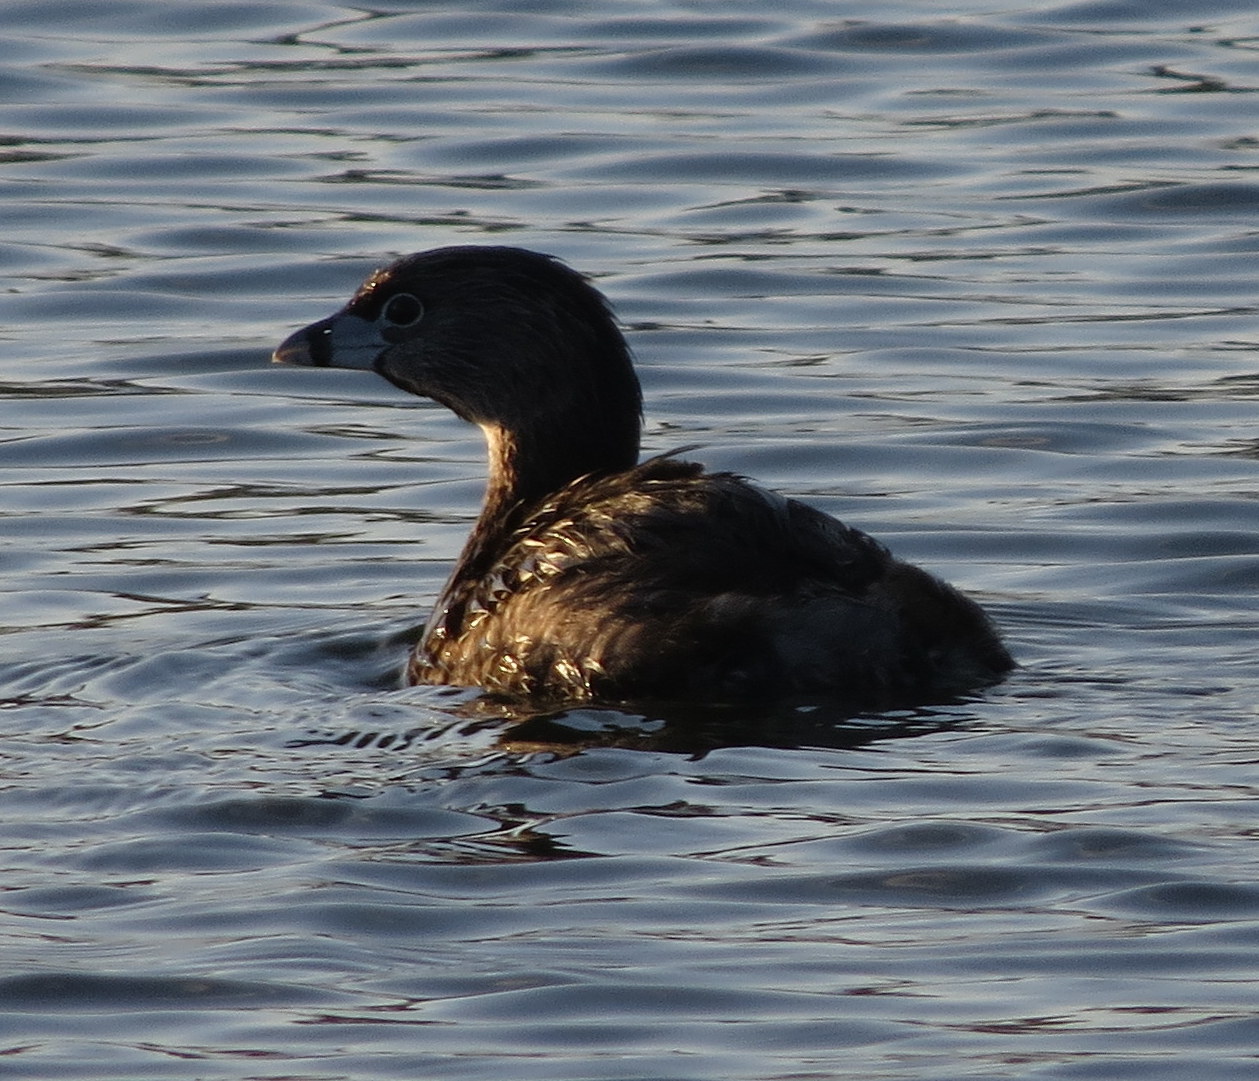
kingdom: Animalia
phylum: Chordata
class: Aves
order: Podicipediformes
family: Podicipedidae
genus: Podilymbus
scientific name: Podilymbus podiceps
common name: Pied-billed grebe
